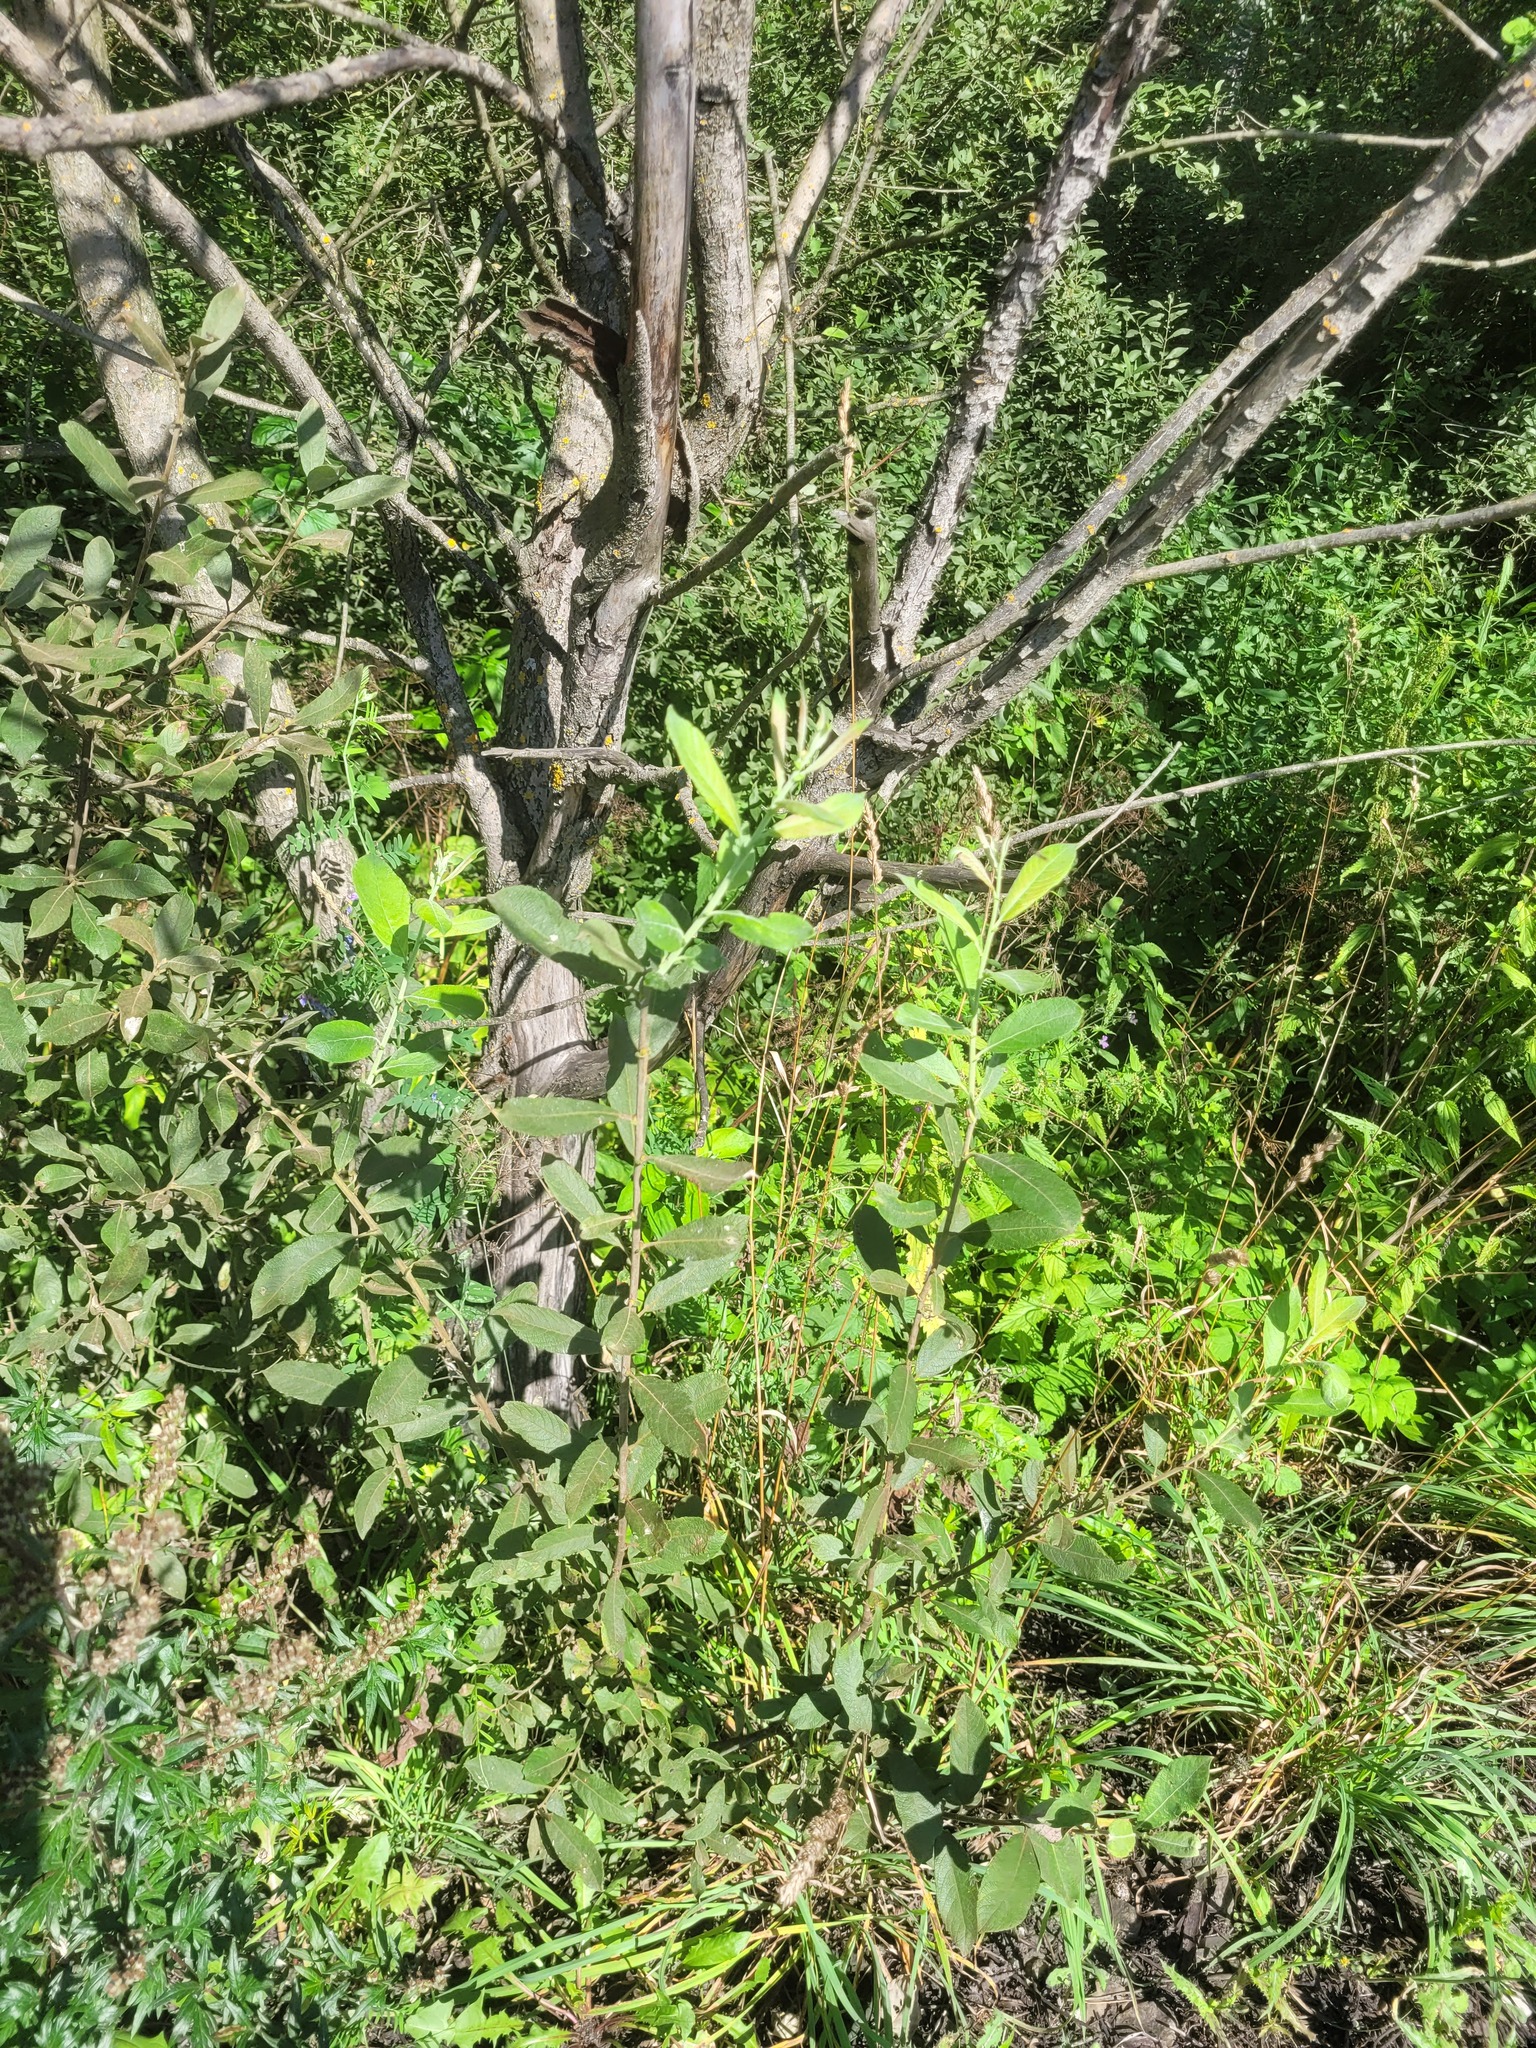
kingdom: Plantae
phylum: Tracheophyta
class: Magnoliopsida
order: Malpighiales
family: Salicaceae
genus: Salix
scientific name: Salix cinerea
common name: Common sallow
